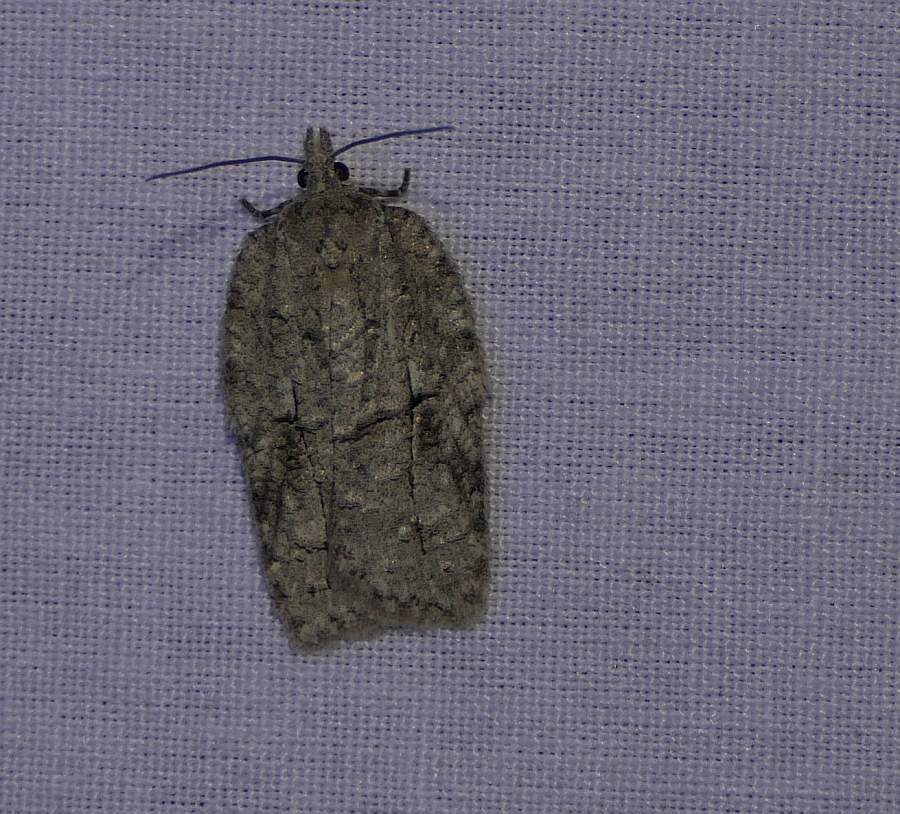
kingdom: Animalia
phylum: Arthropoda
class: Insecta
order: Lepidoptera
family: Tortricidae
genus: Acleris
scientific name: Acleris nigrolinea
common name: Black-lined acleris
